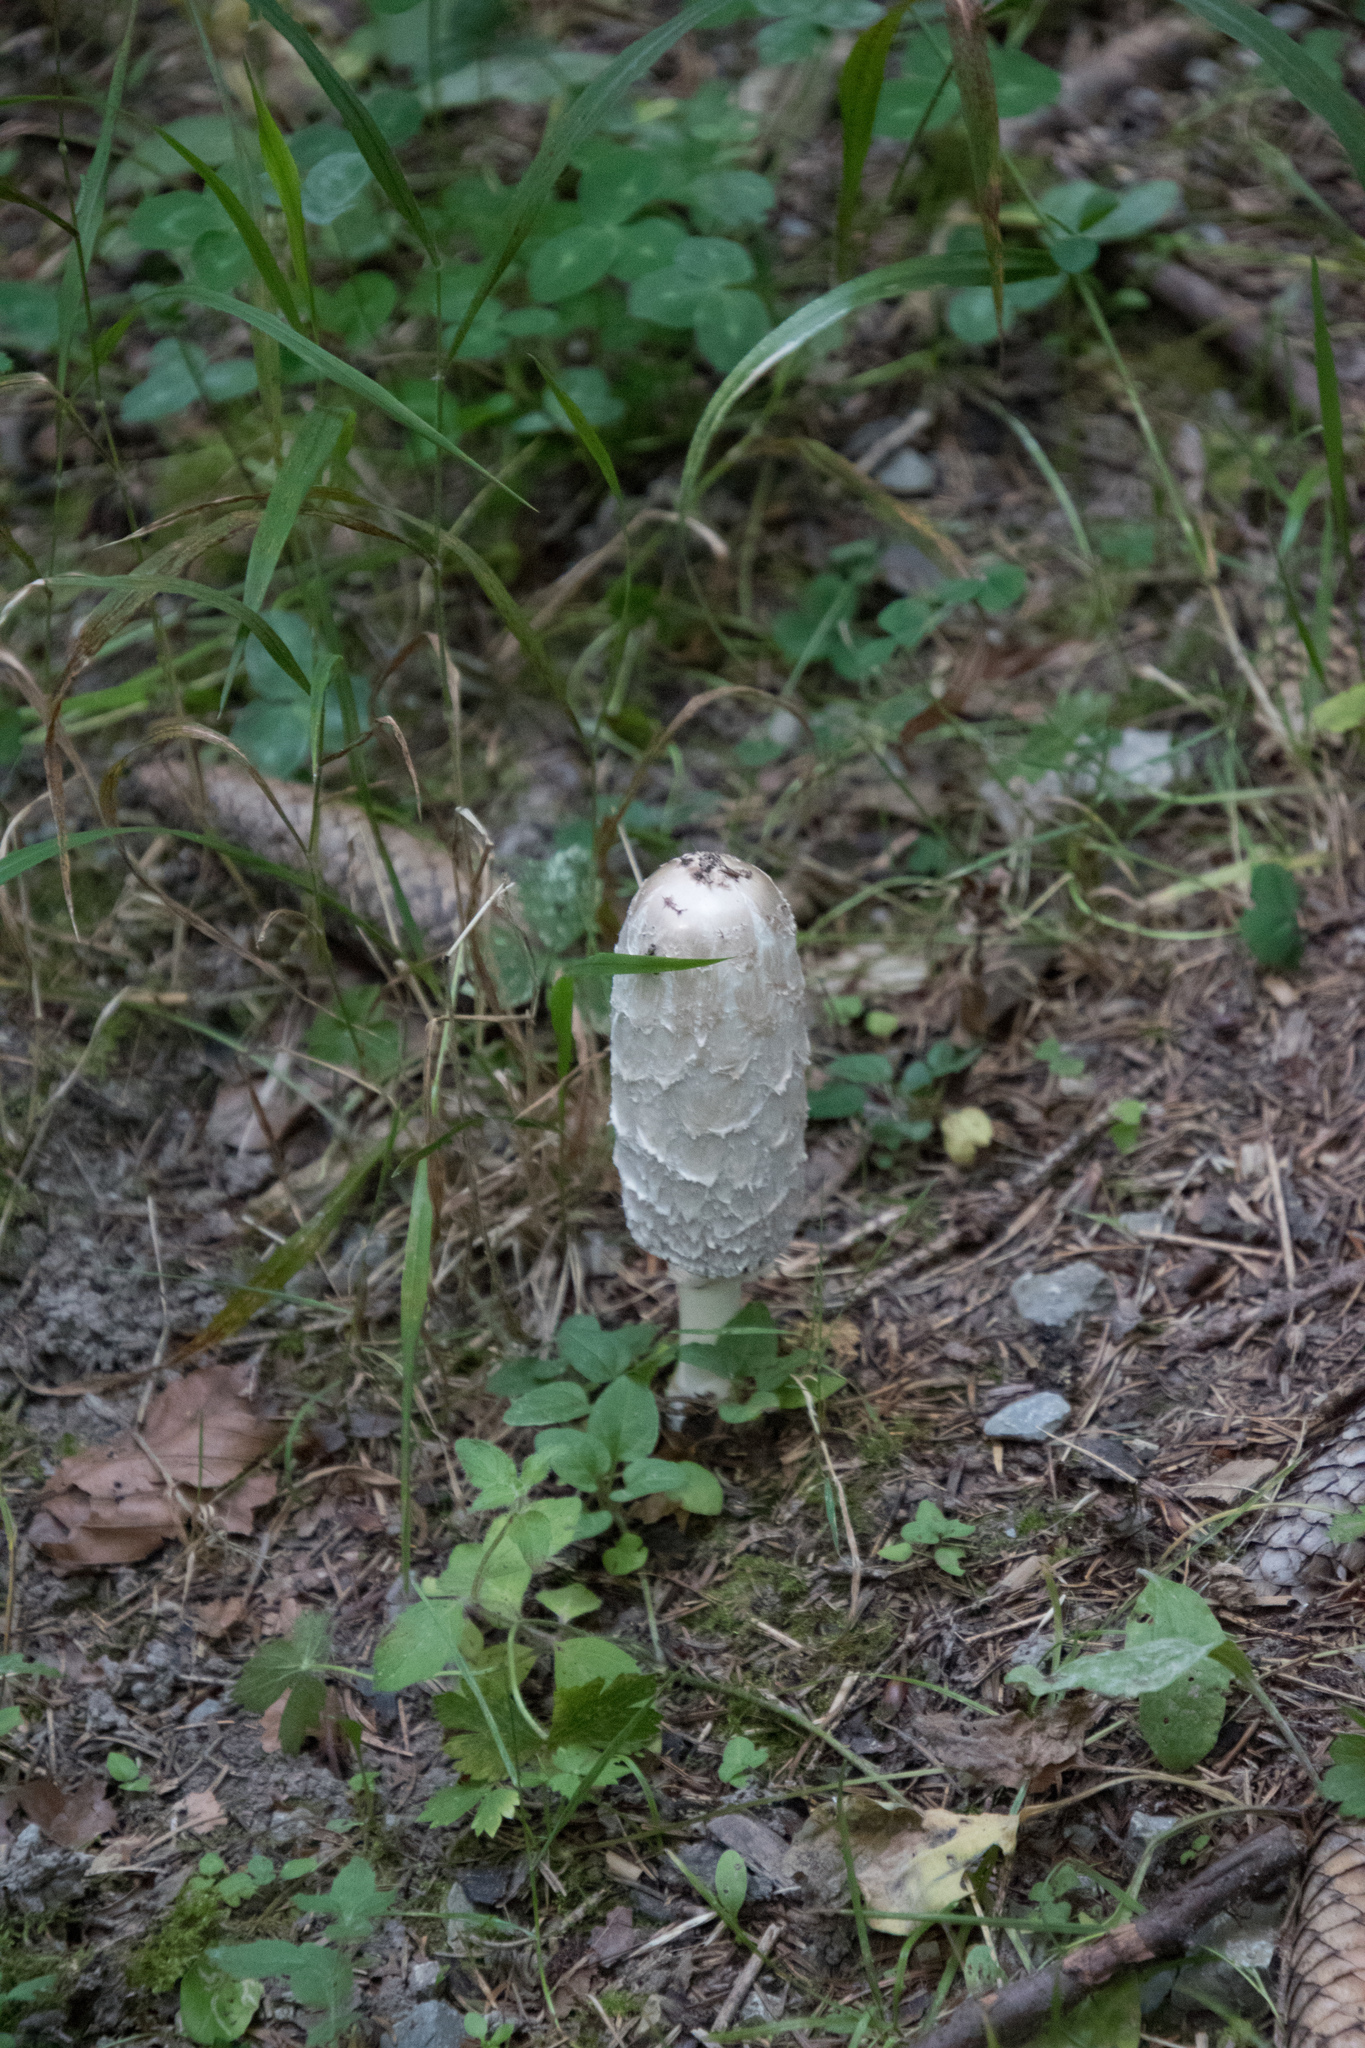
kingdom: Fungi
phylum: Basidiomycota
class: Agaricomycetes
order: Agaricales
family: Agaricaceae
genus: Coprinus
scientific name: Coprinus comatus
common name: Lawyer's wig
